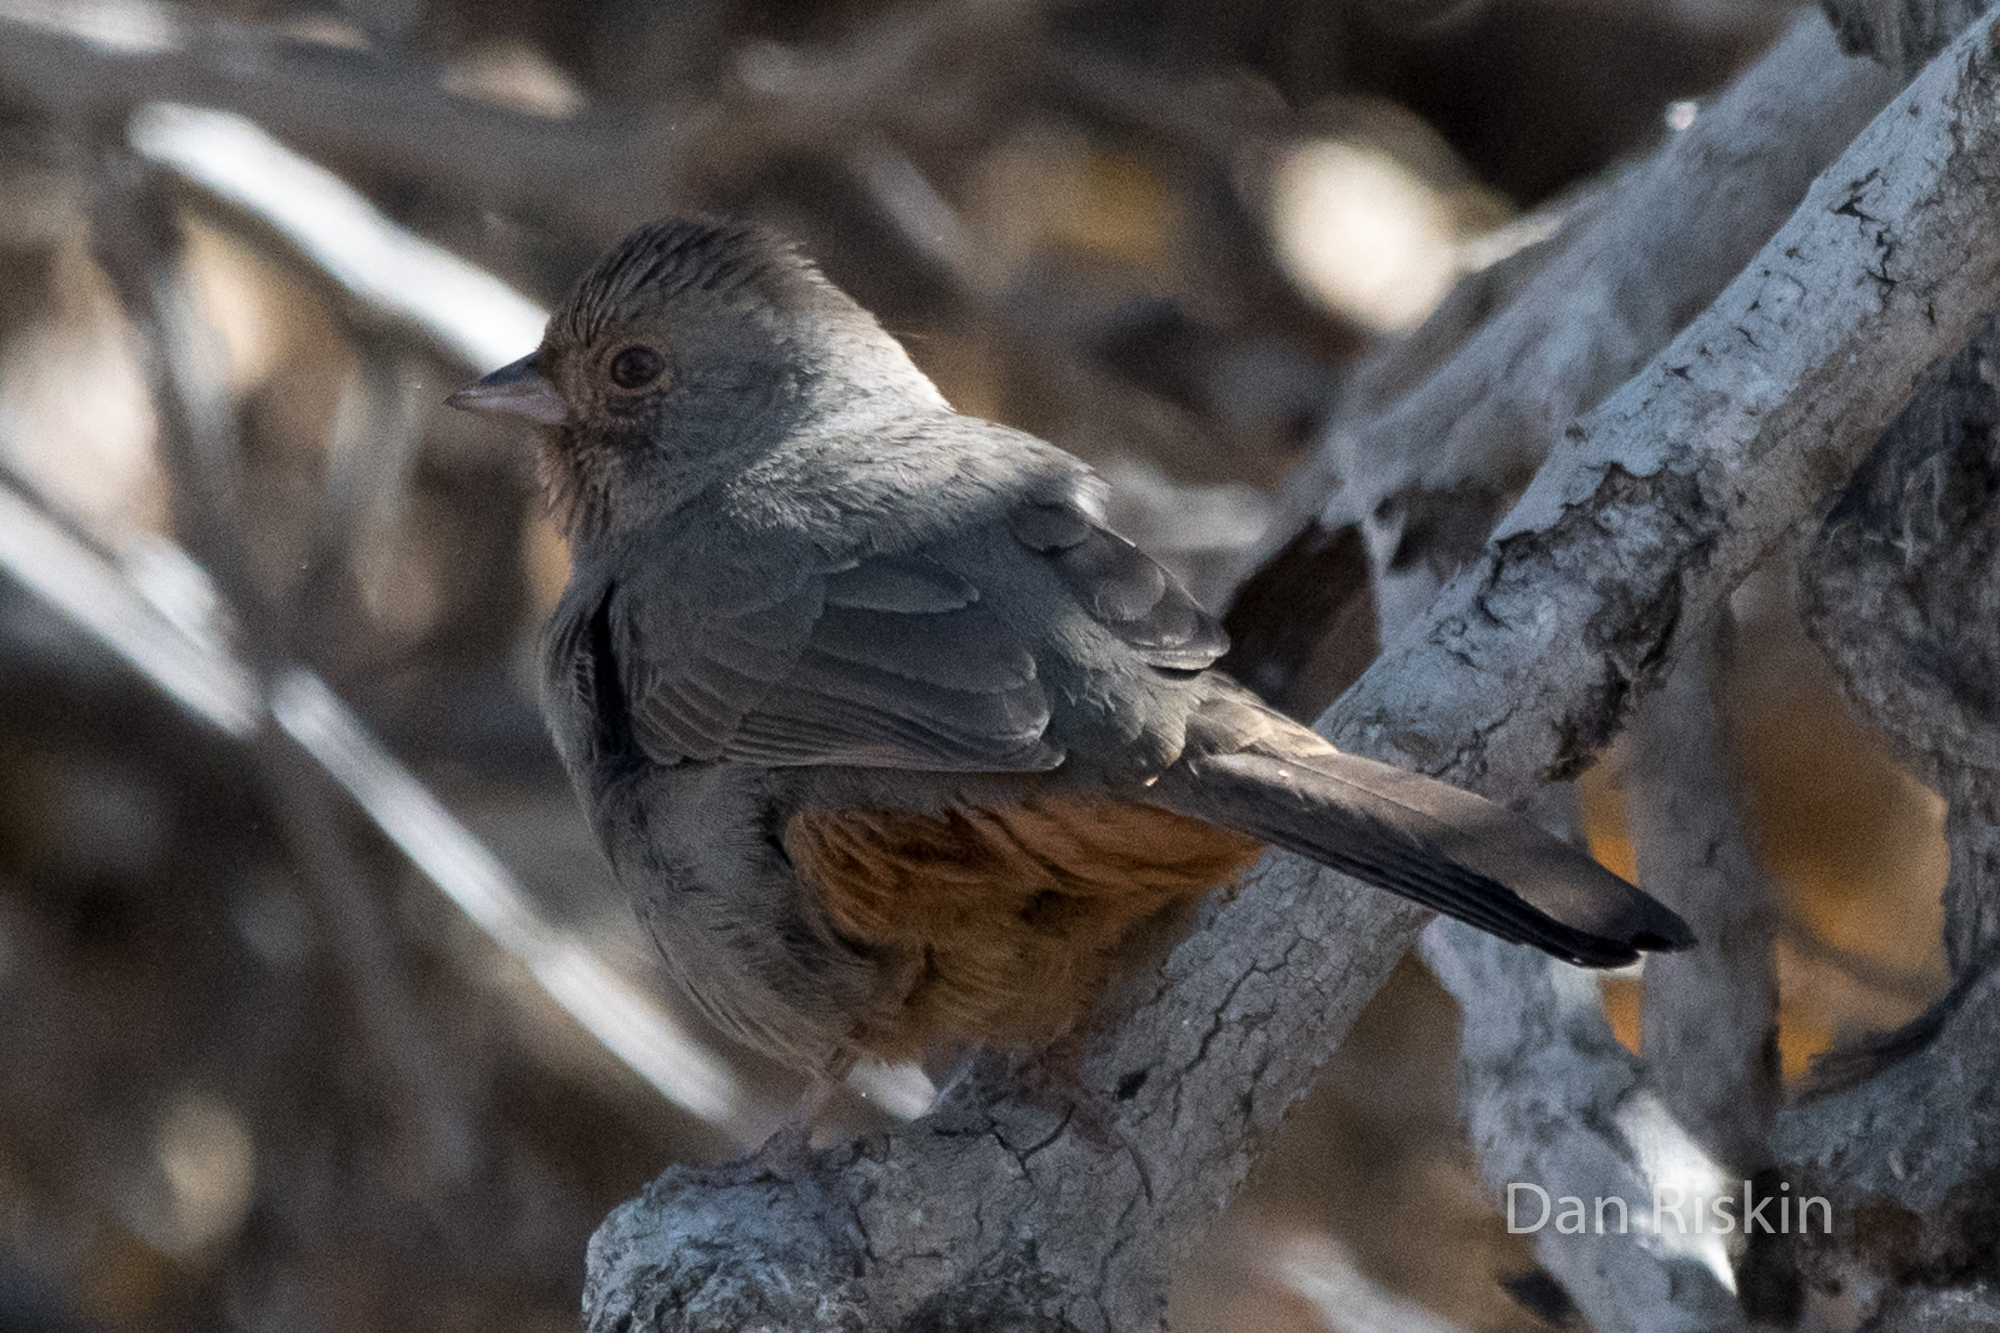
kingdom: Animalia
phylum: Chordata
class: Aves
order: Passeriformes
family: Passerellidae
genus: Melozone
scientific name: Melozone crissalis
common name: California towhee
